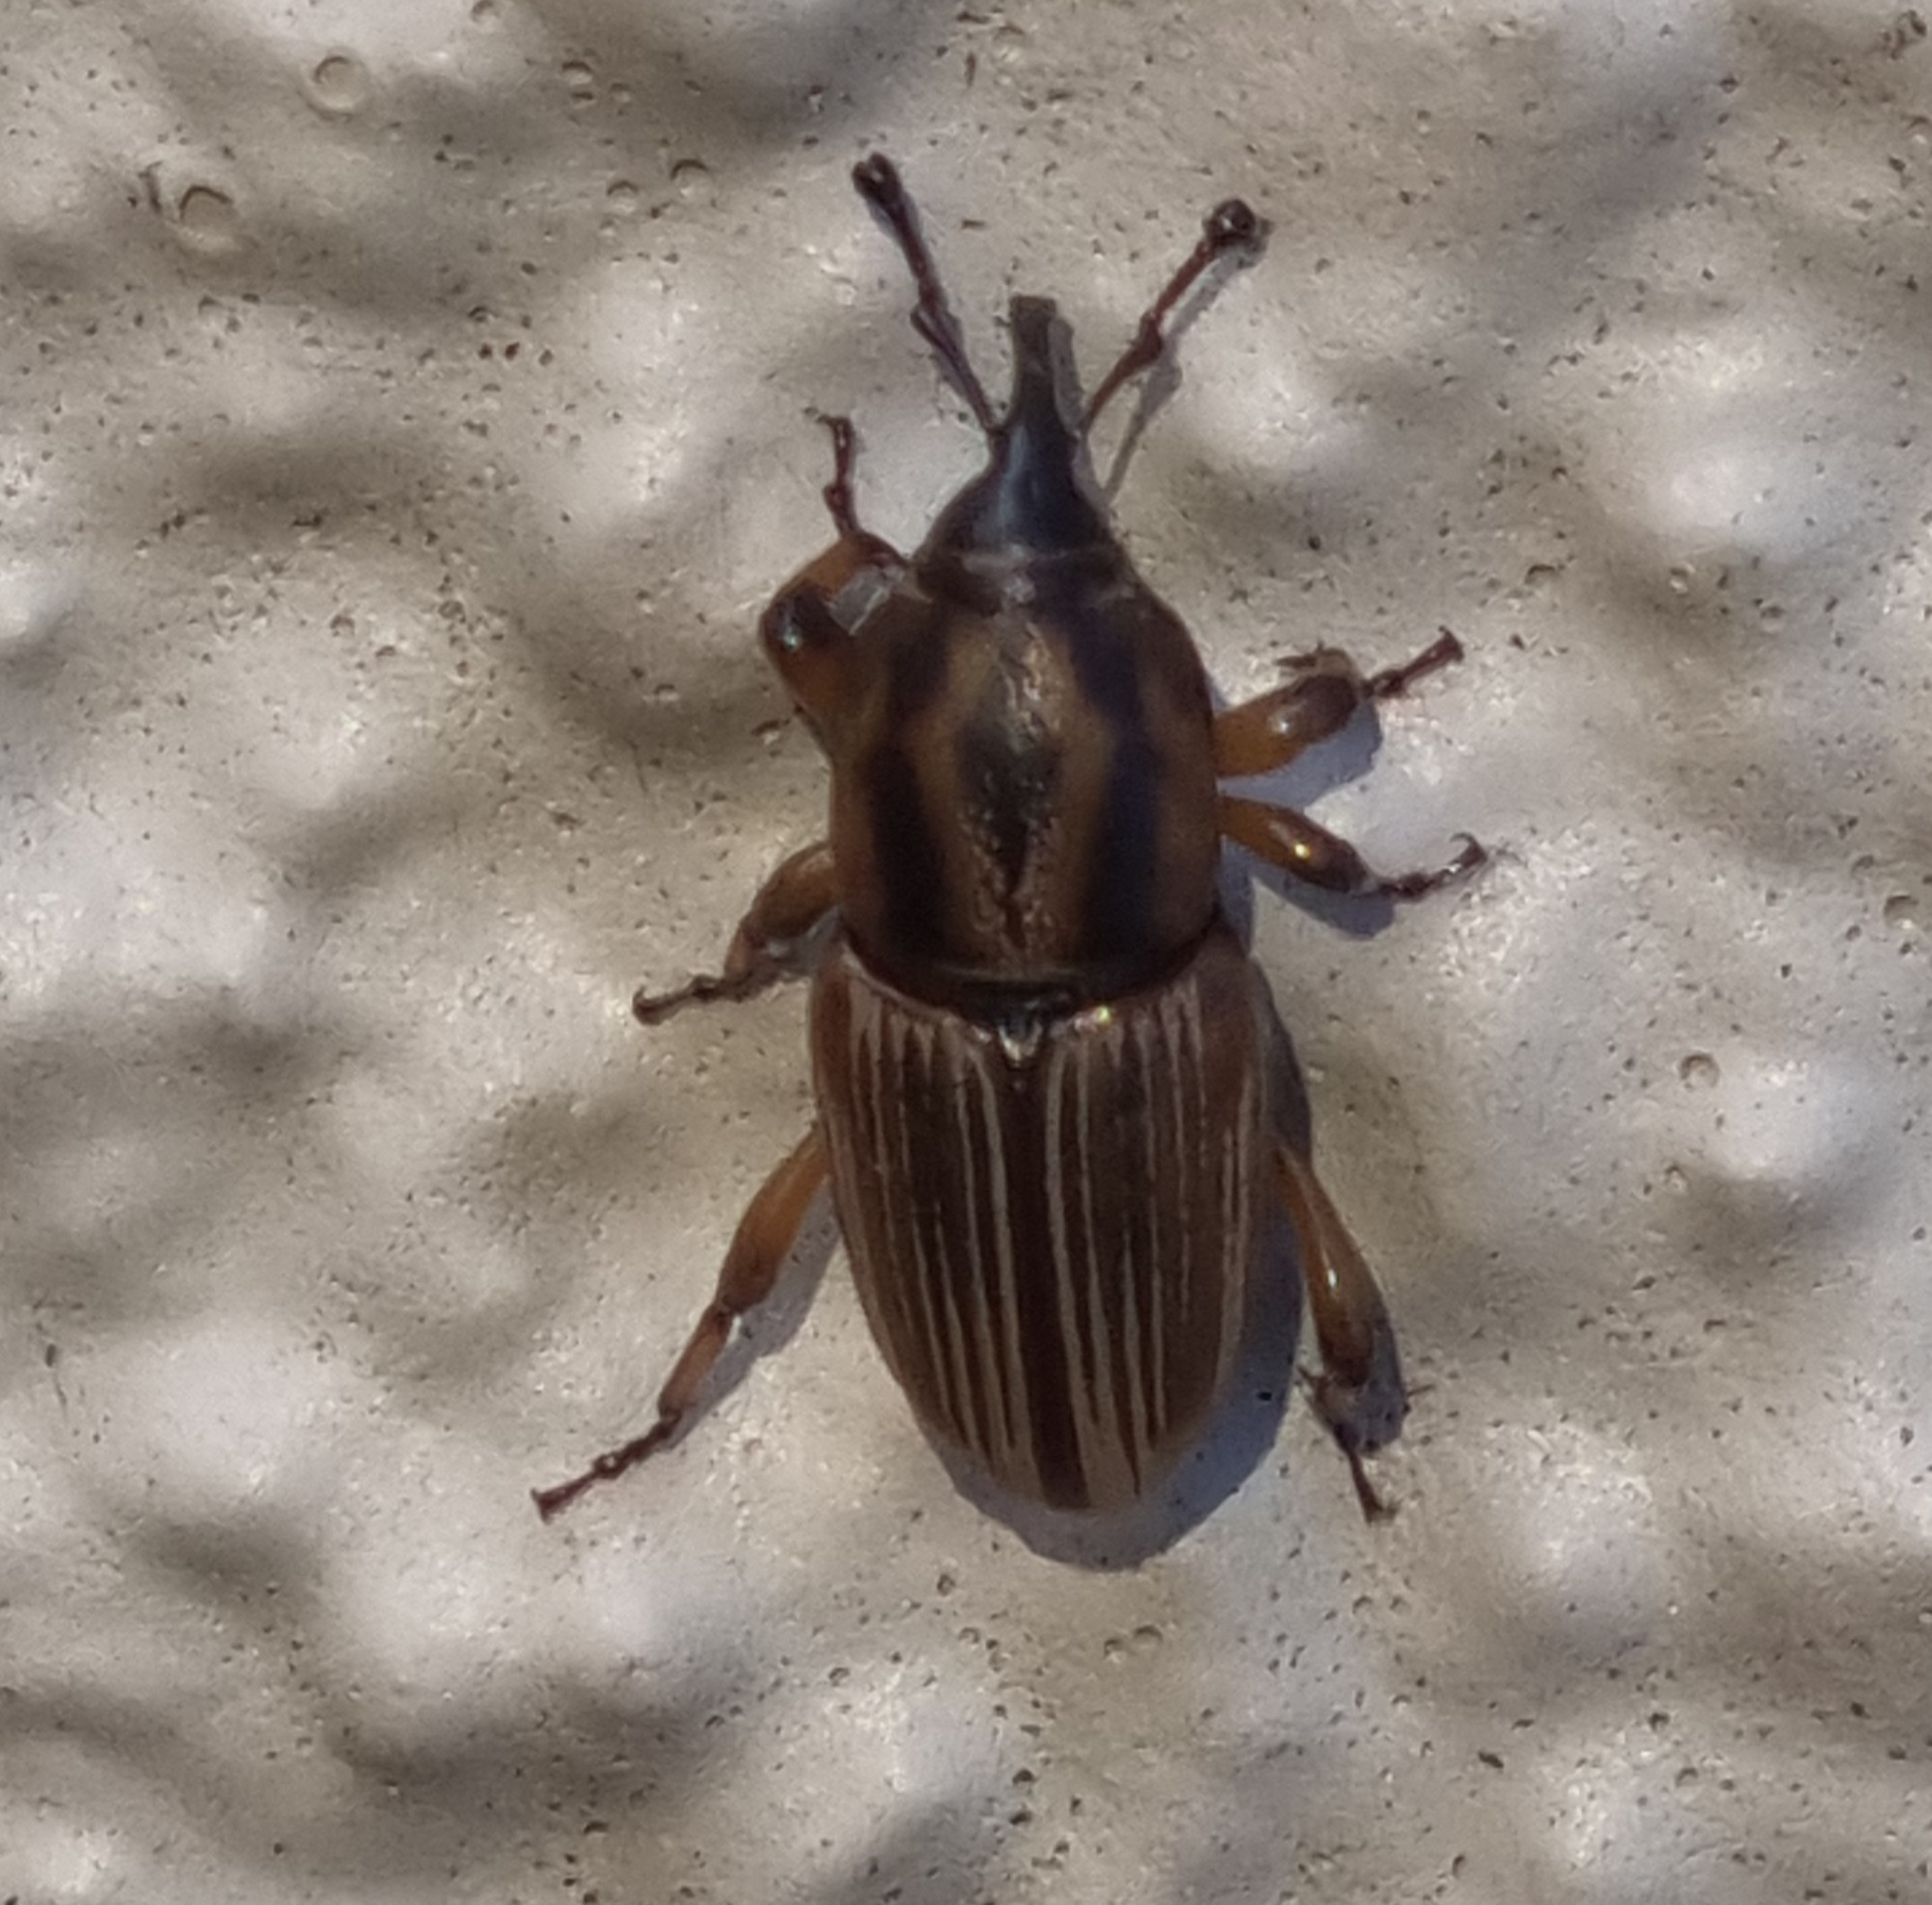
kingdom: Animalia
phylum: Arthropoda
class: Insecta
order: Coleoptera
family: Dryophthoridae
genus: Sphenophorus
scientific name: Sphenophorus brunnipennis
